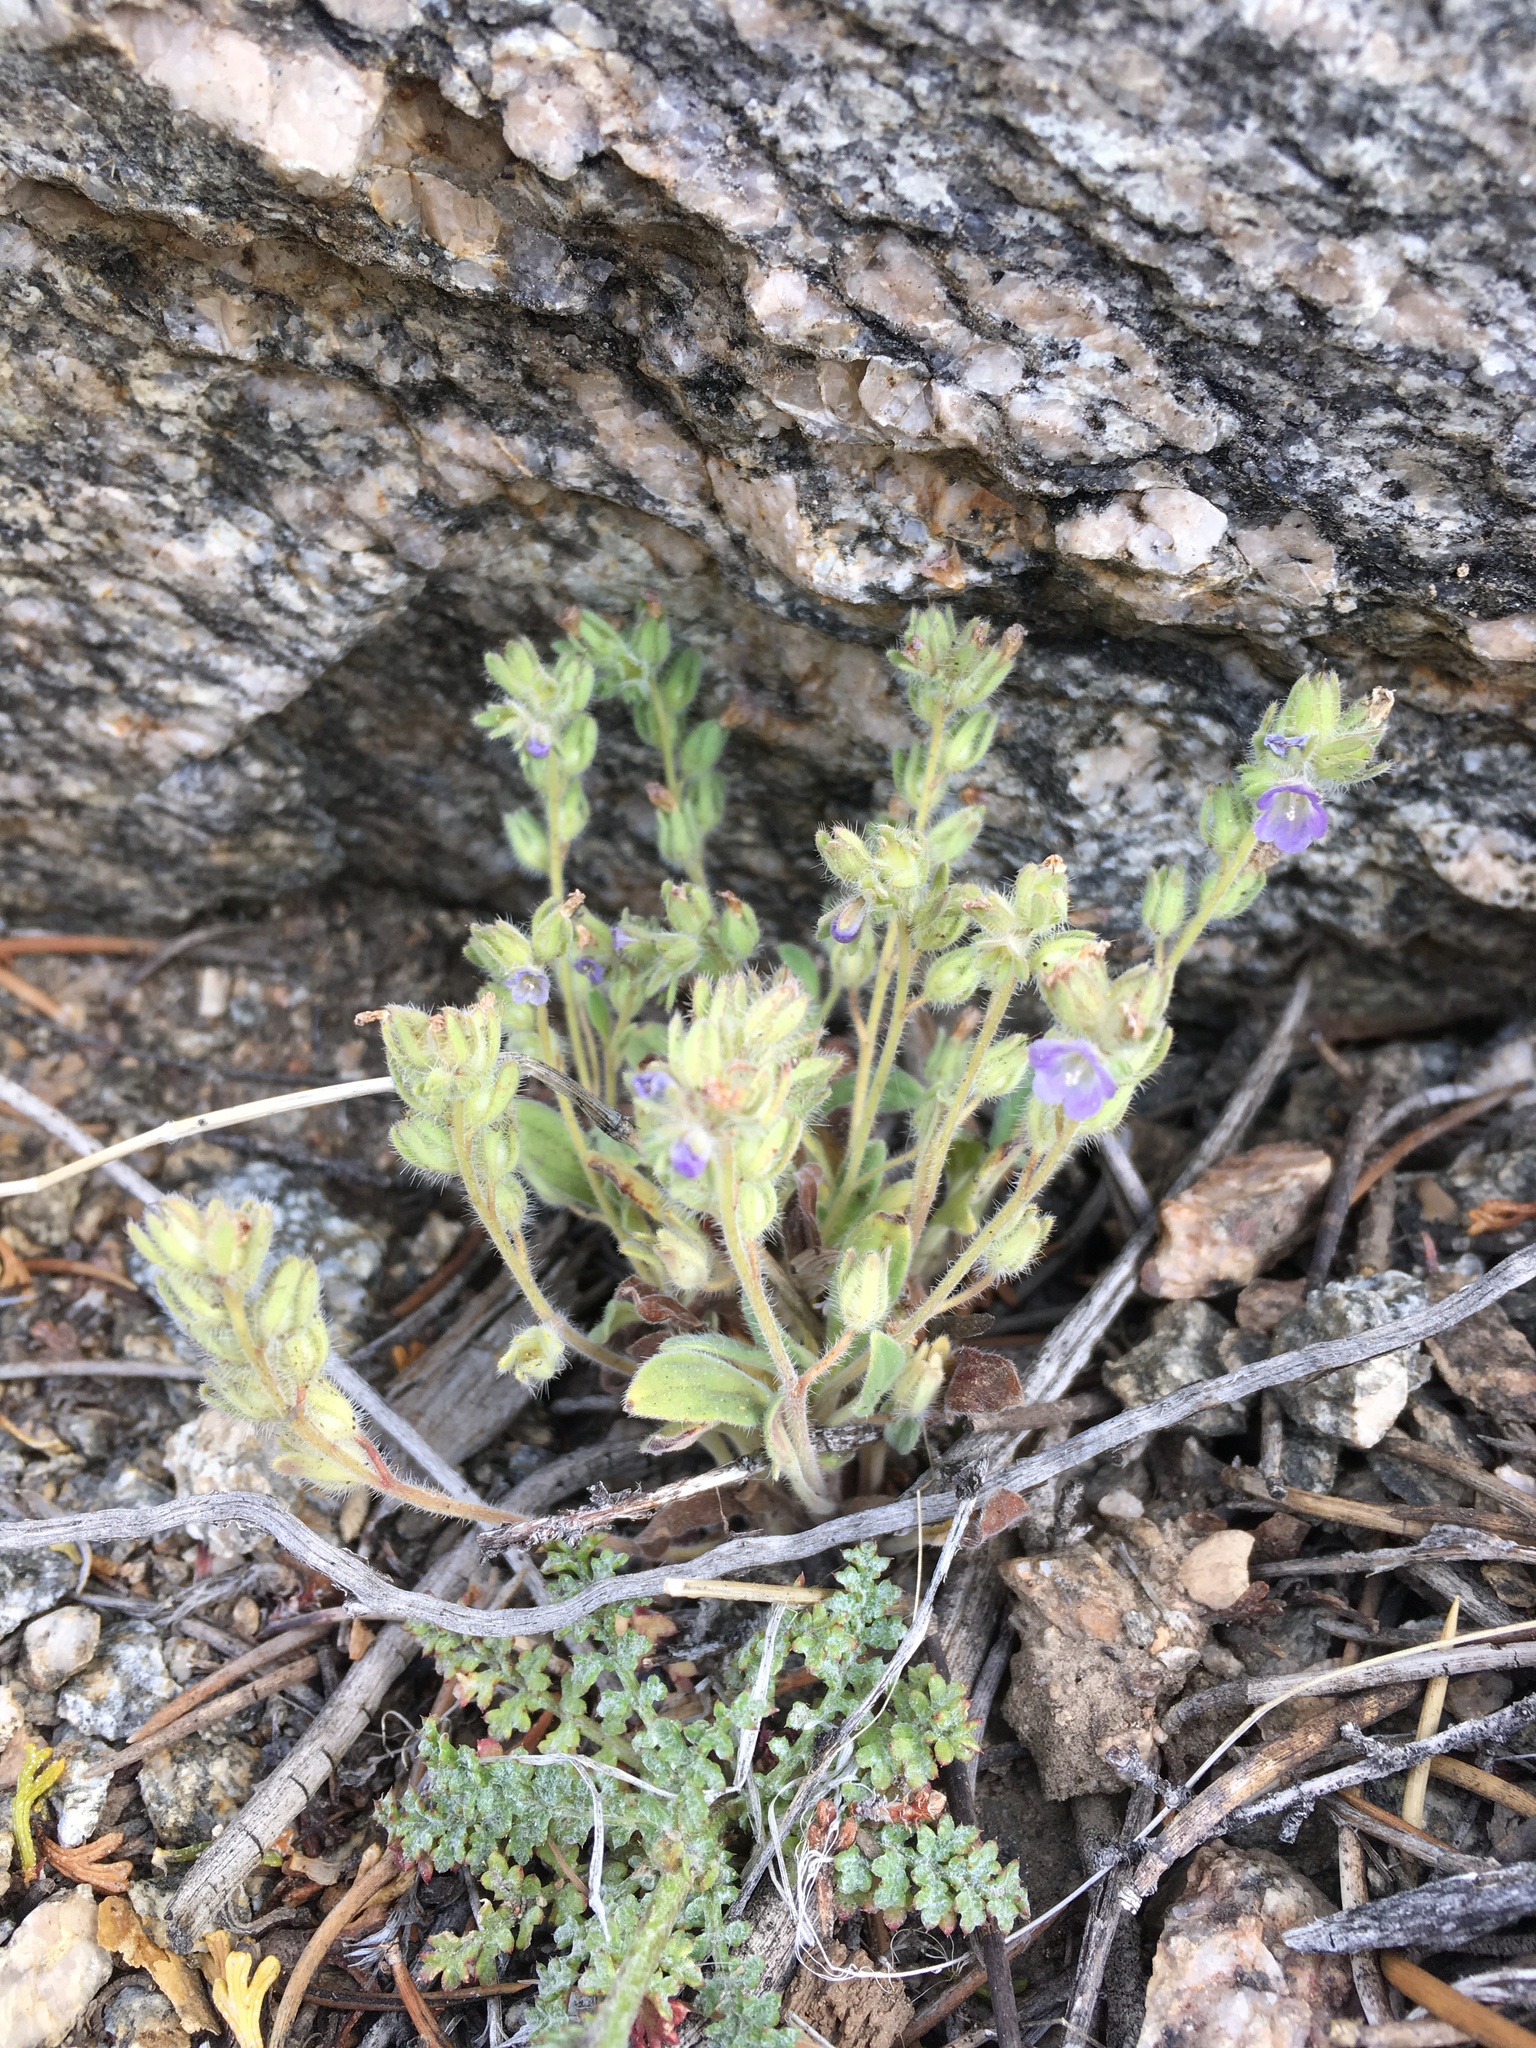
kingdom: Plantae
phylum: Tracheophyta
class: Magnoliopsida
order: Boraginales
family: Hydrophyllaceae
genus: Phacelia
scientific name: Phacelia austromontana
